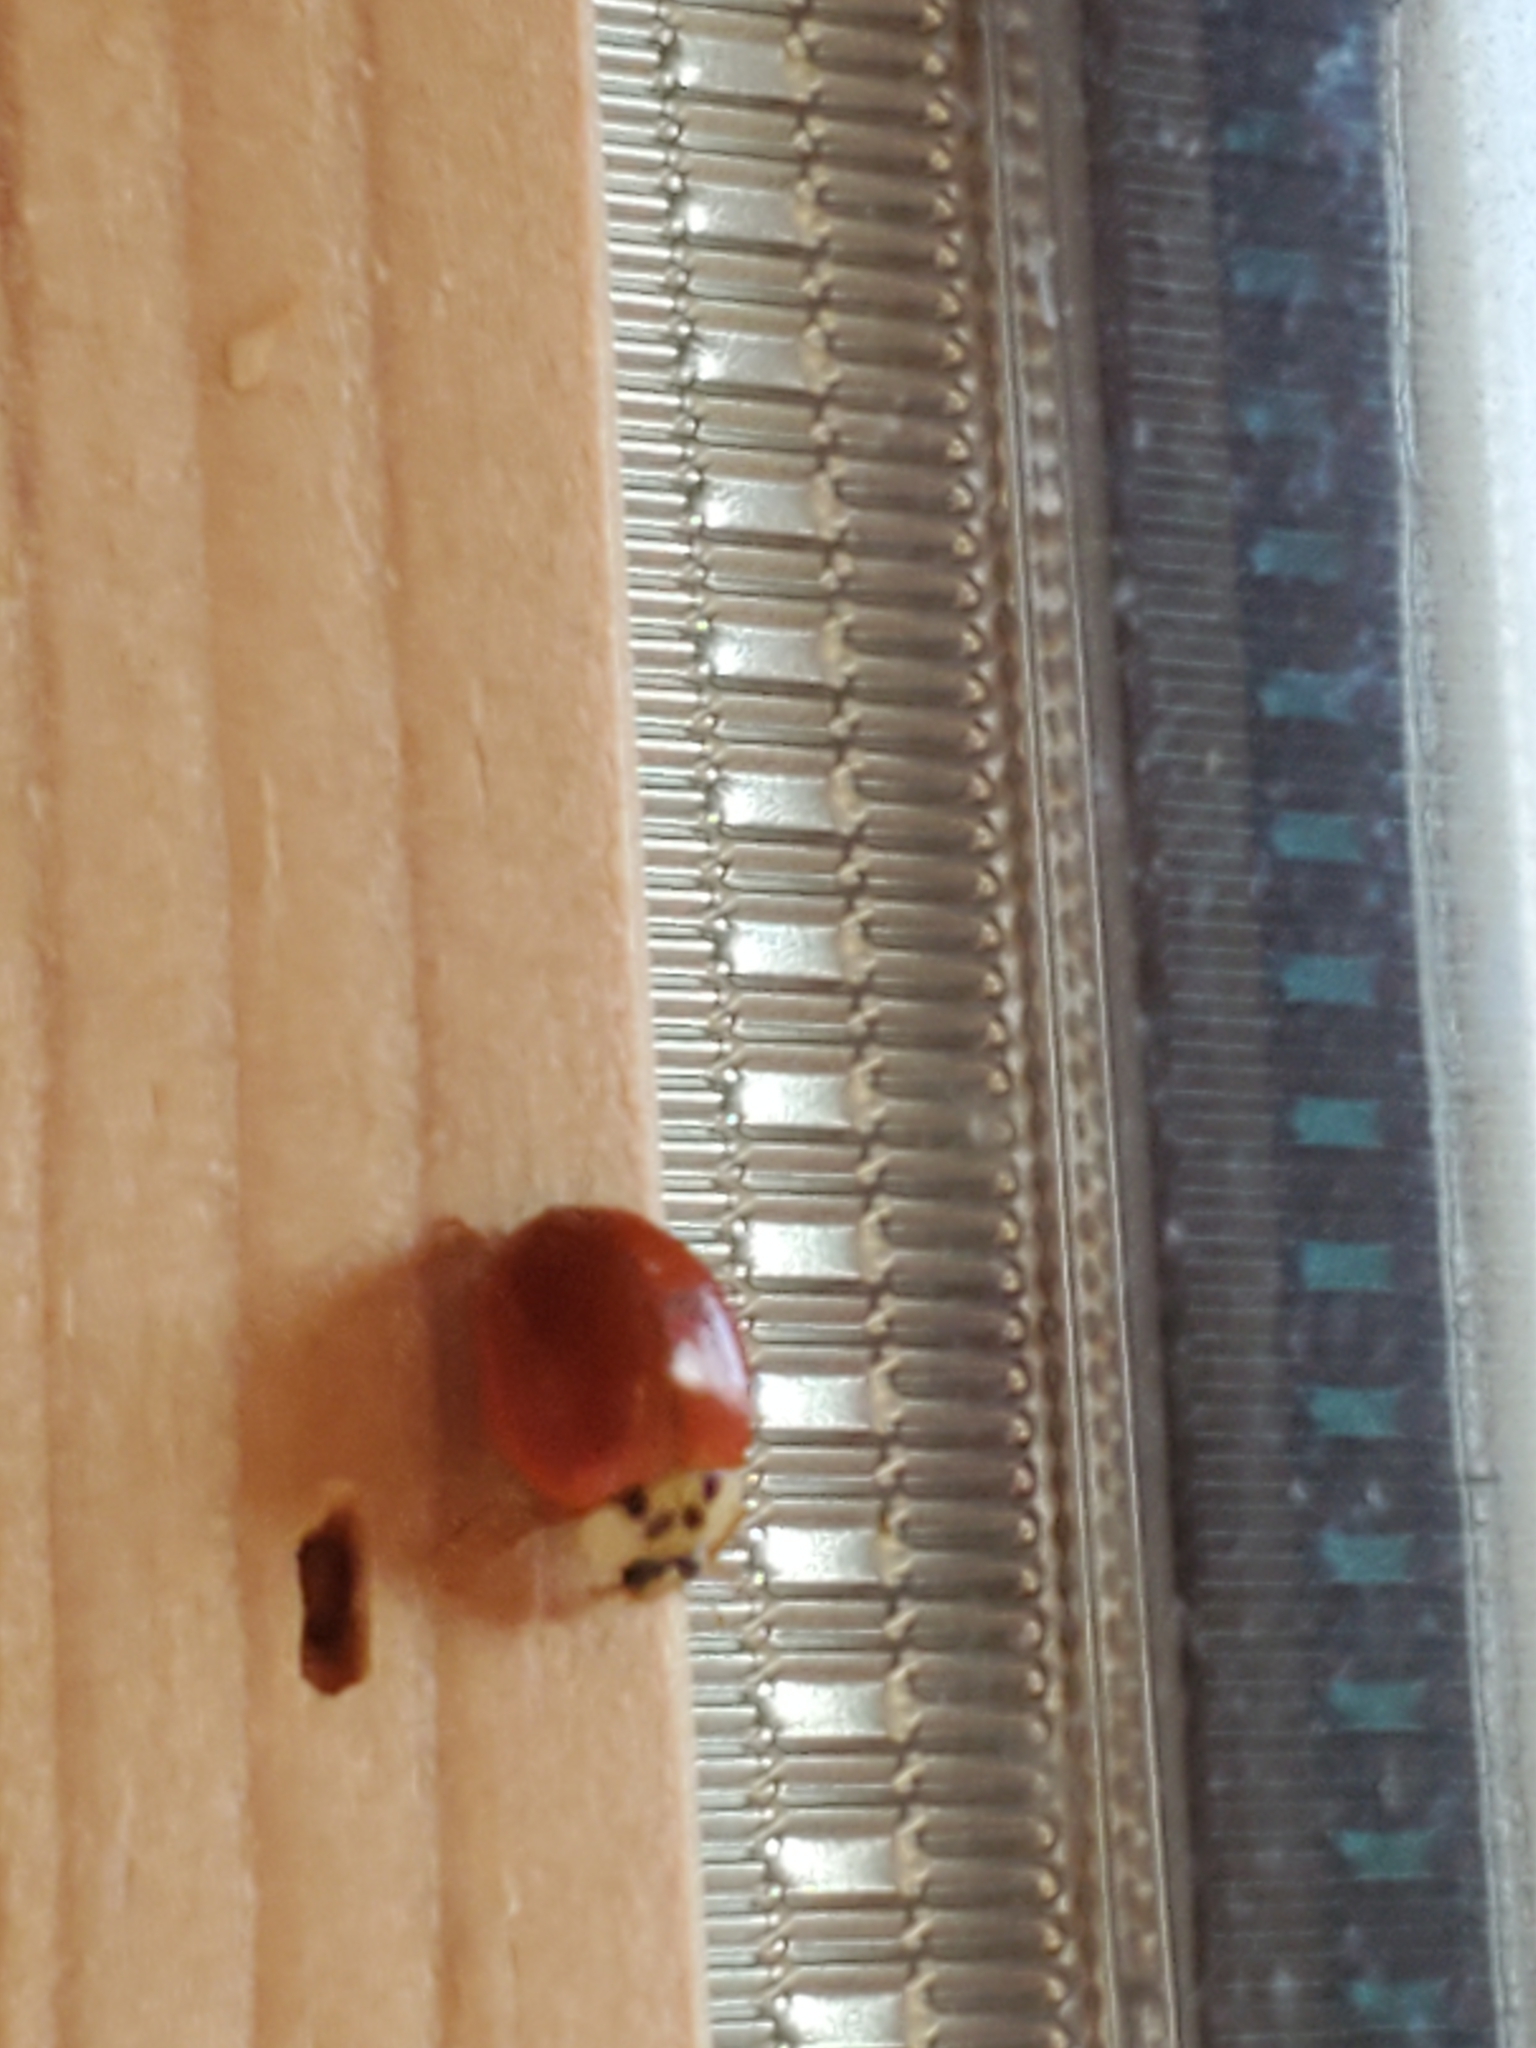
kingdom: Animalia
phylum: Arthropoda
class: Insecta
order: Coleoptera
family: Coccinellidae
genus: Harmonia
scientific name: Harmonia axyridis
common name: Harlequin ladybird
